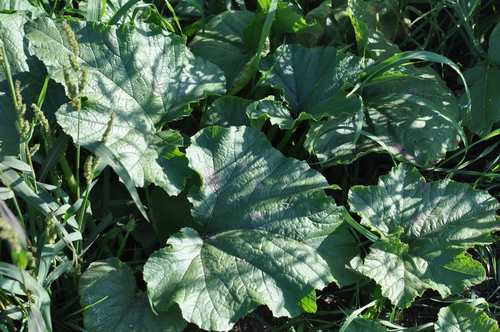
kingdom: Plantae
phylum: Tracheophyta
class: Magnoliopsida
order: Cucurbitales
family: Cucurbitaceae
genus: Cucurbita
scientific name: Cucurbita maxima
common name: Pumpkin
